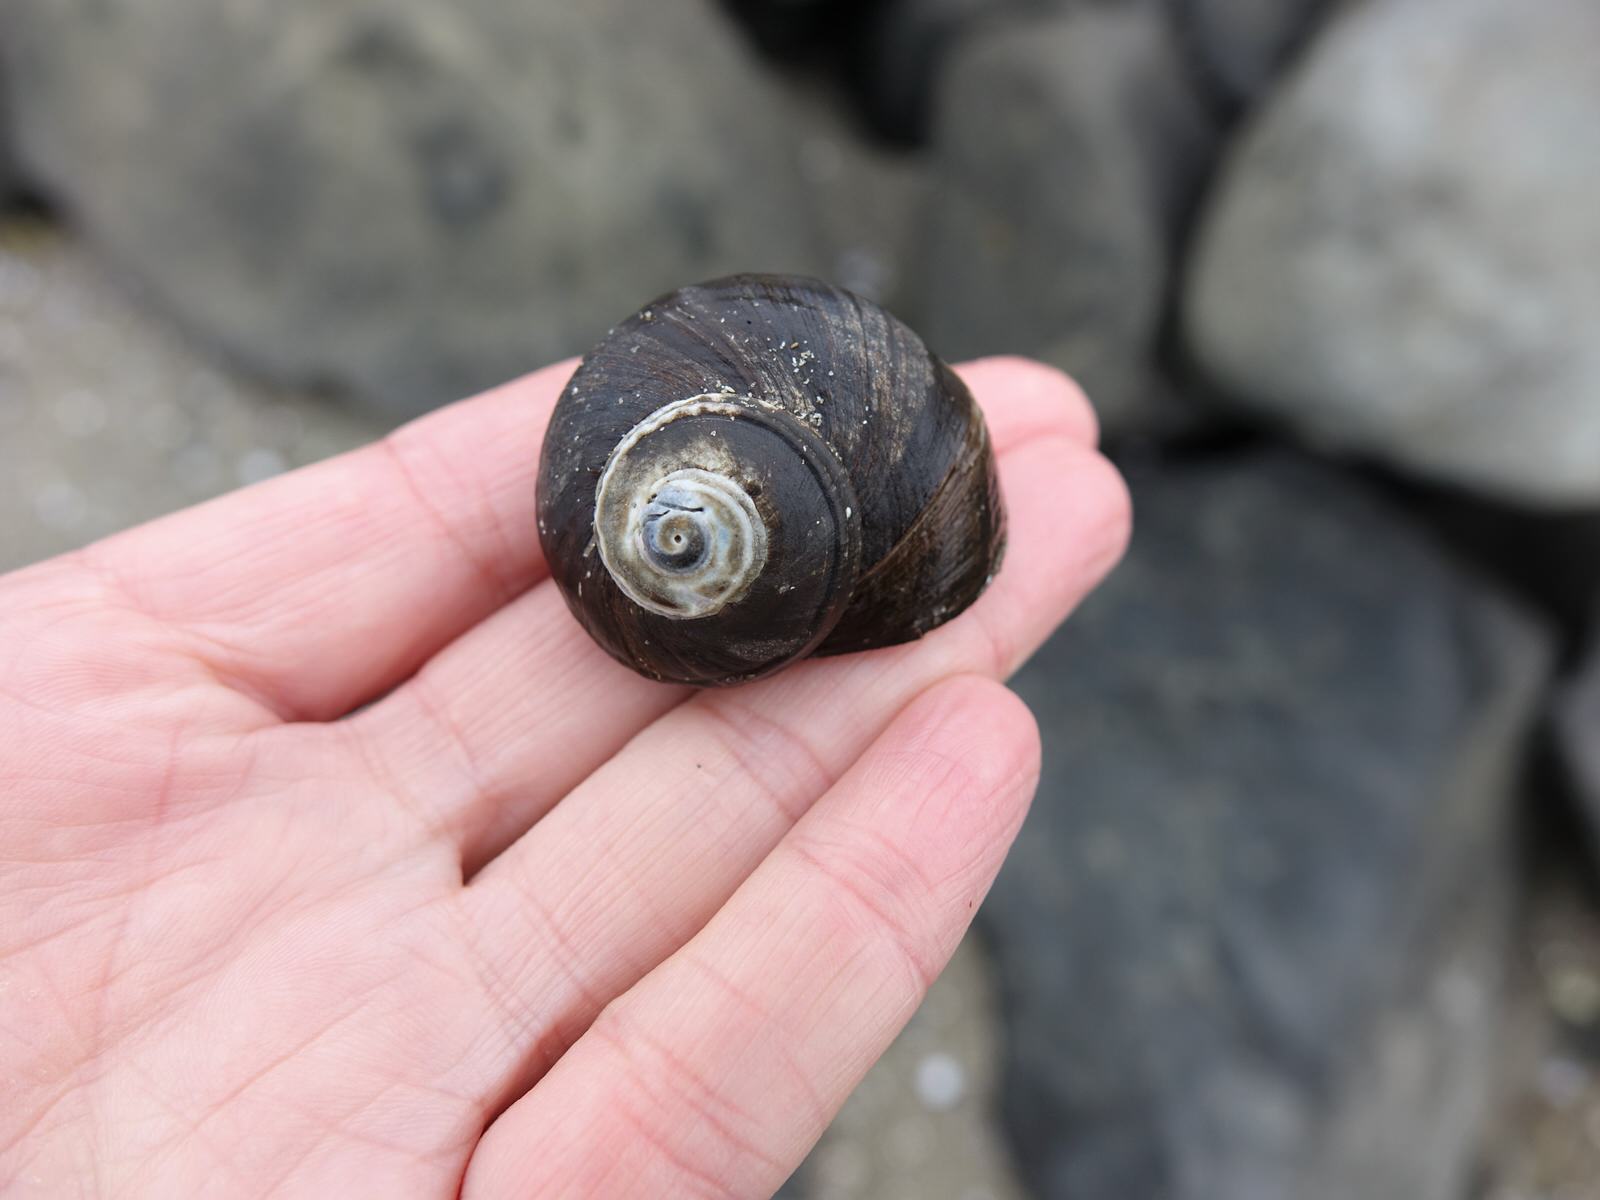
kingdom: Animalia
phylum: Mollusca
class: Gastropoda
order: Trochida
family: Turbinidae
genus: Lunella
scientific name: Lunella smaragda
